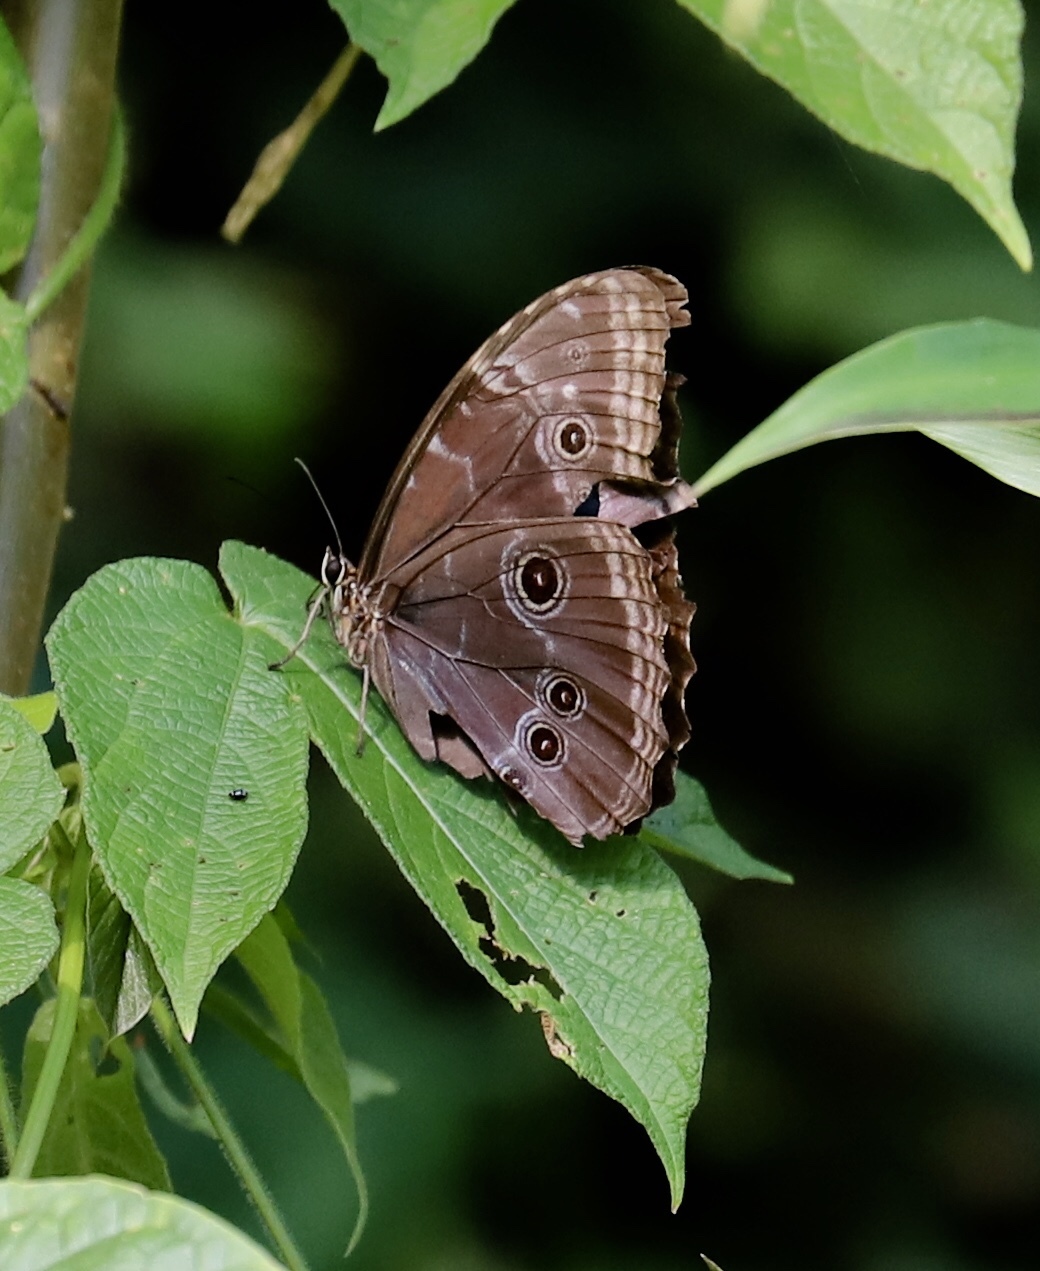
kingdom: Animalia
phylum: Arthropoda
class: Insecta
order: Lepidoptera
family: Nymphalidae
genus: Morpho
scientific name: Morpho helenor
